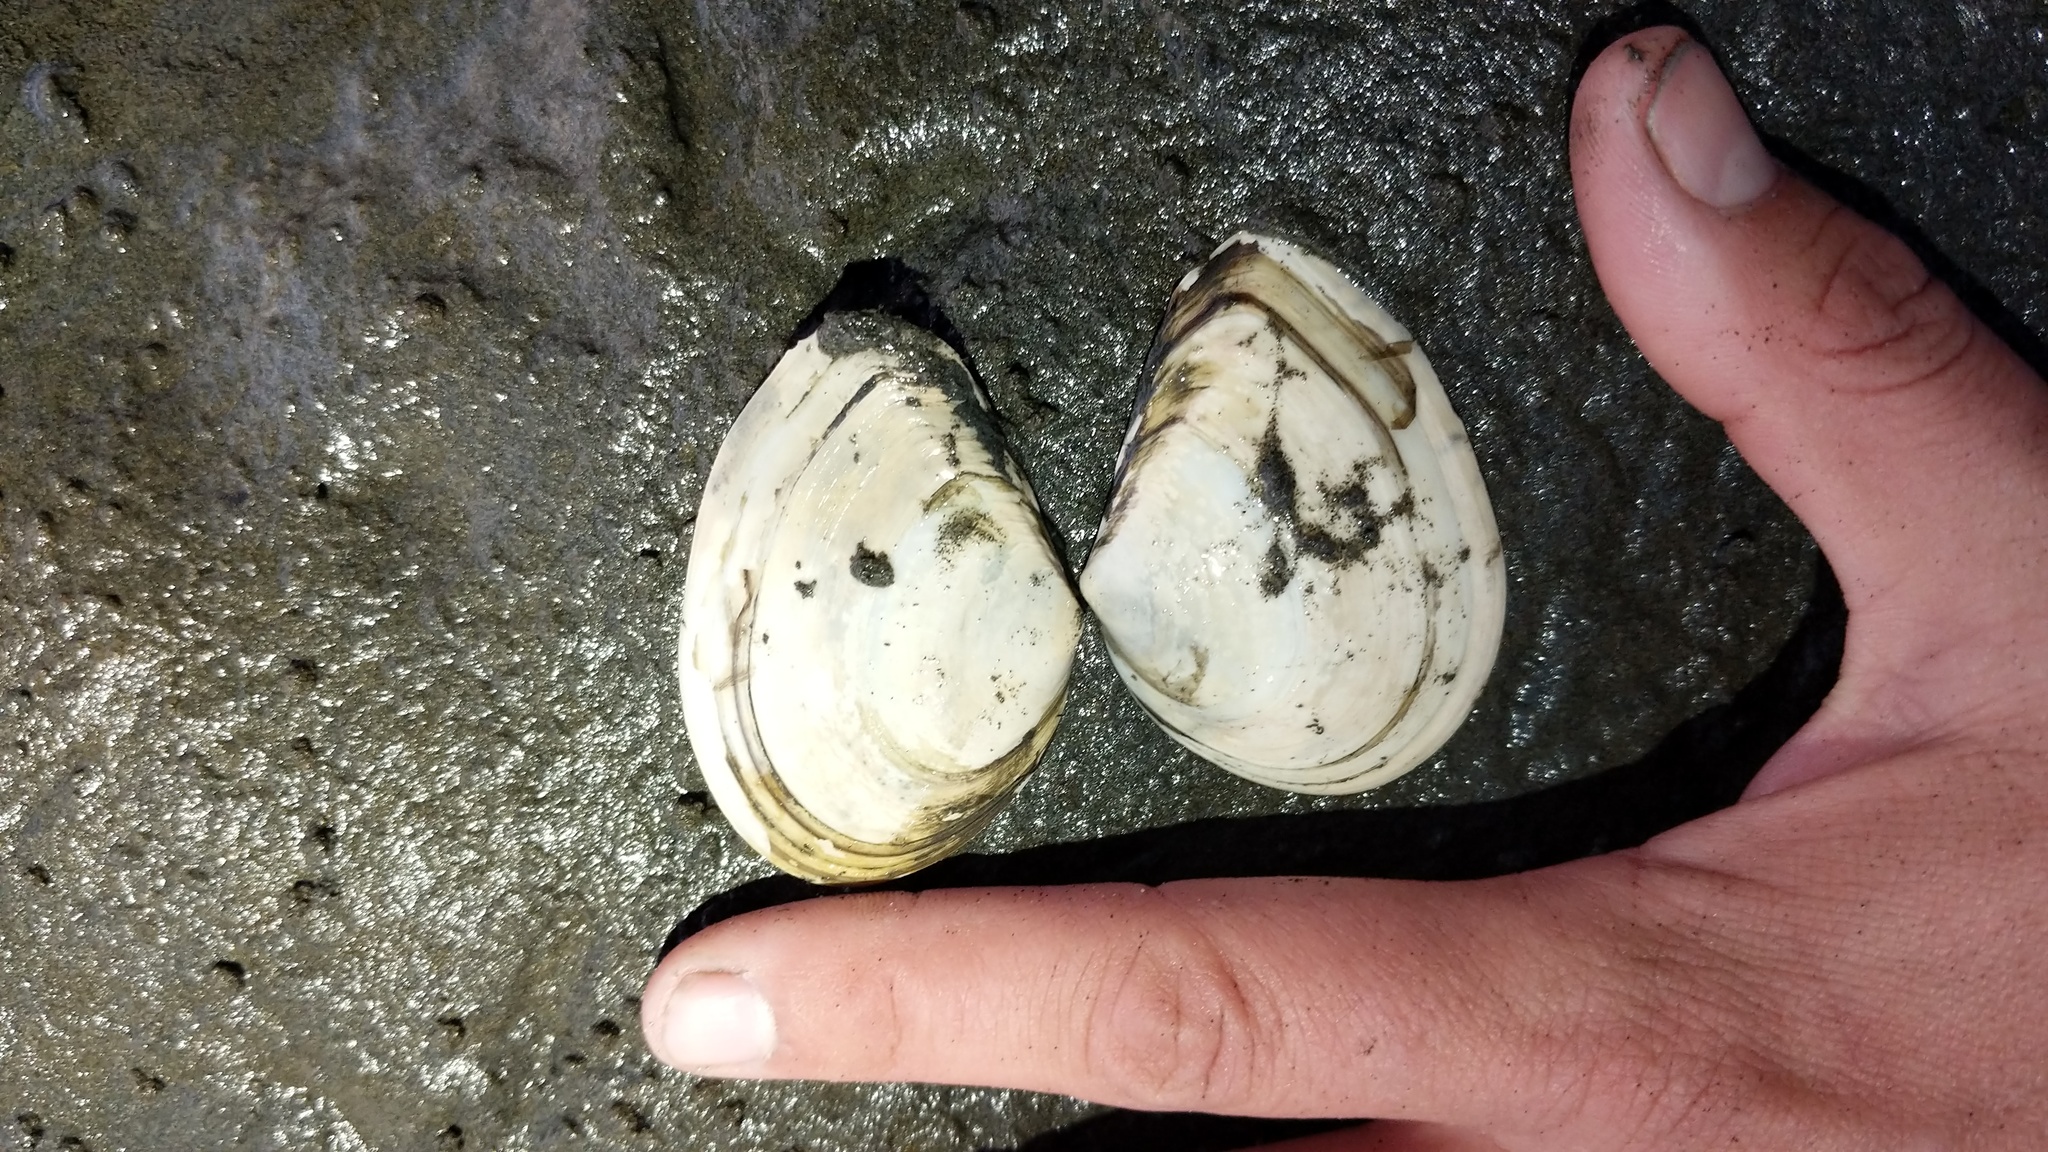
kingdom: Animalia
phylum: Mollusca
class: Bivalvia
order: Cardiida
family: Tellinidae
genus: Macoma
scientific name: Macoma nasuta
